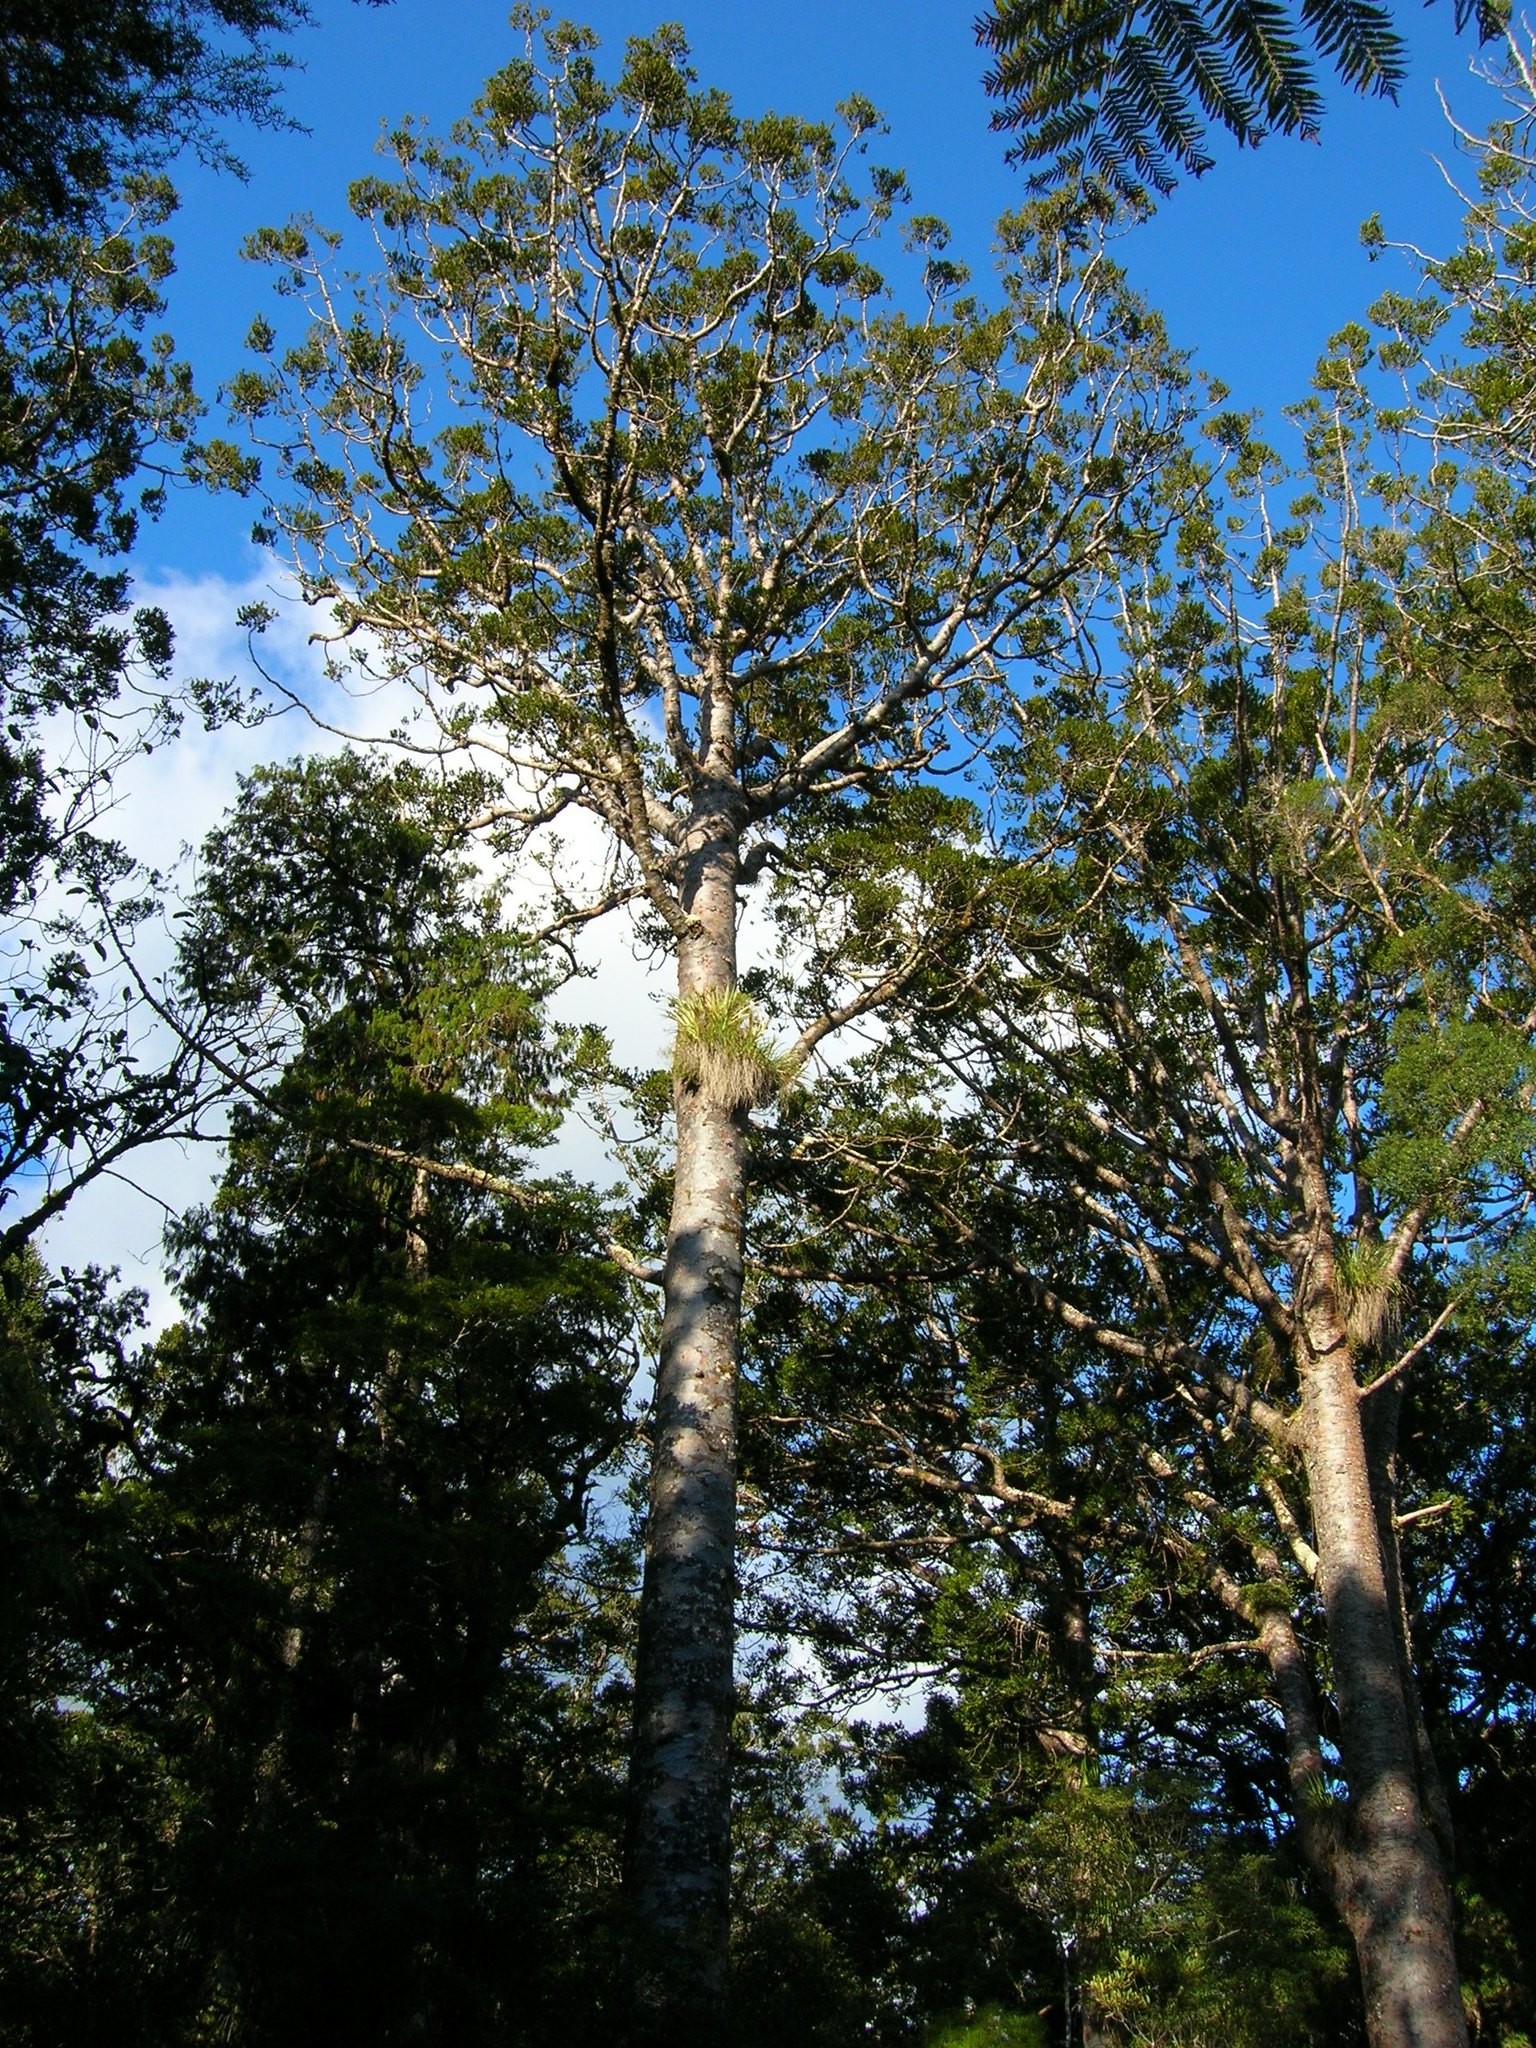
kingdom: Plantae
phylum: Tracheophyta
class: Pinopsida
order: Pinales
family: Araucariaceae
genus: Agathis
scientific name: Agathis australis
